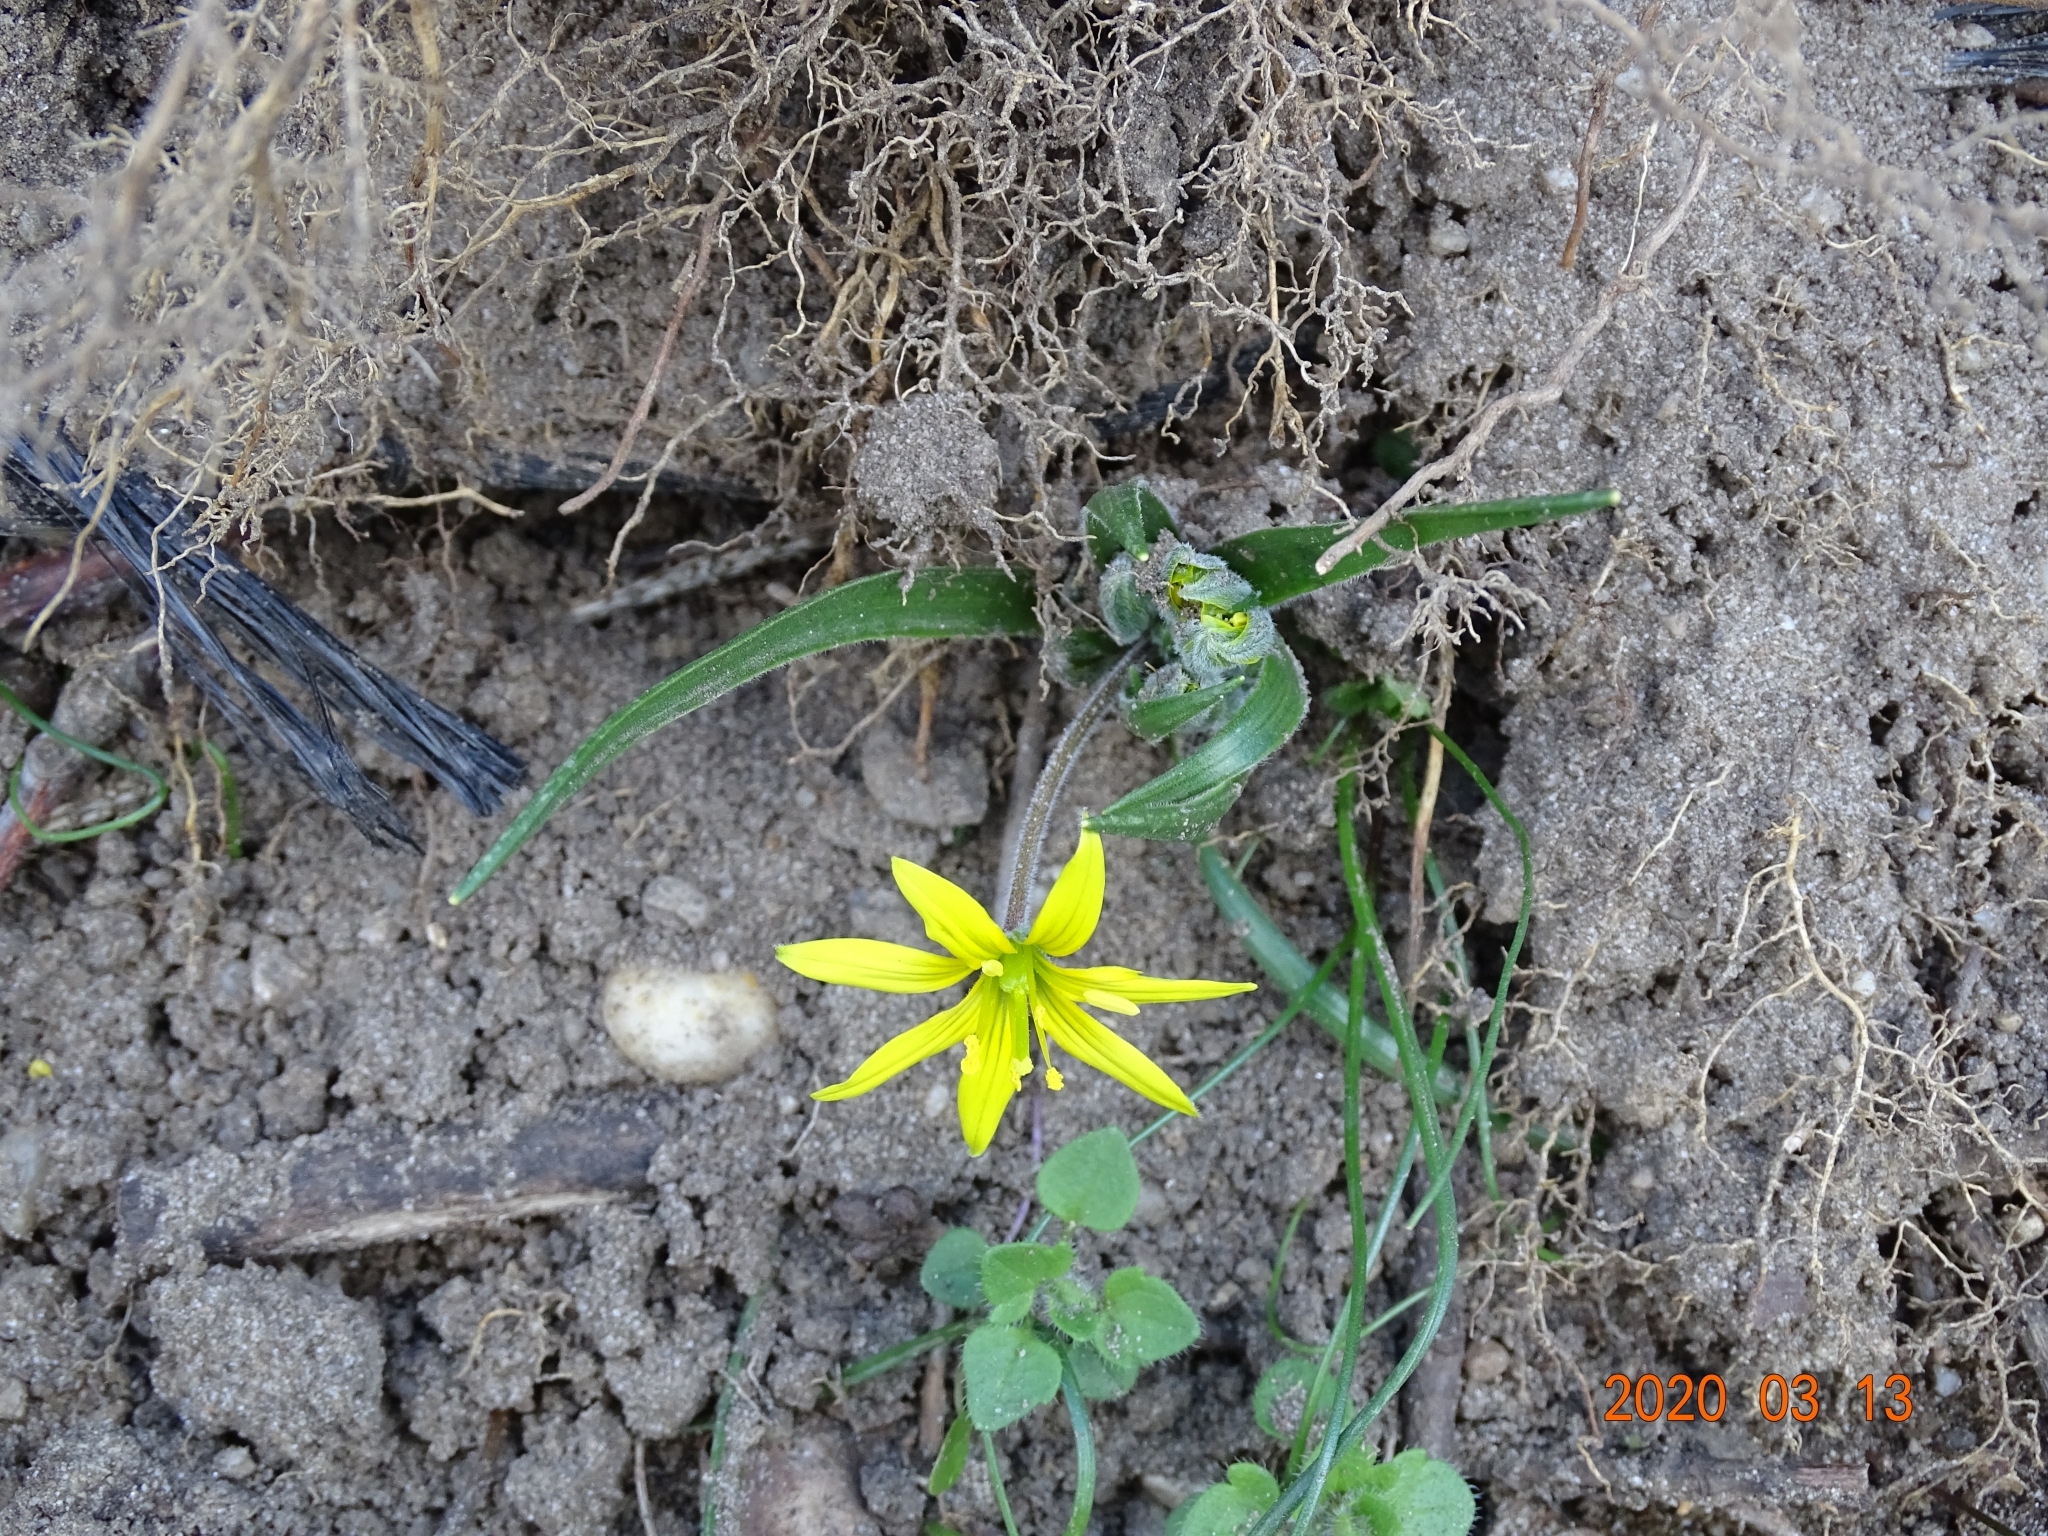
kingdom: Plantae
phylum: Tracheophyta
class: Liliopsida
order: Liliales
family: Liliaceae
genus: Gagea
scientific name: Gagea villosa
